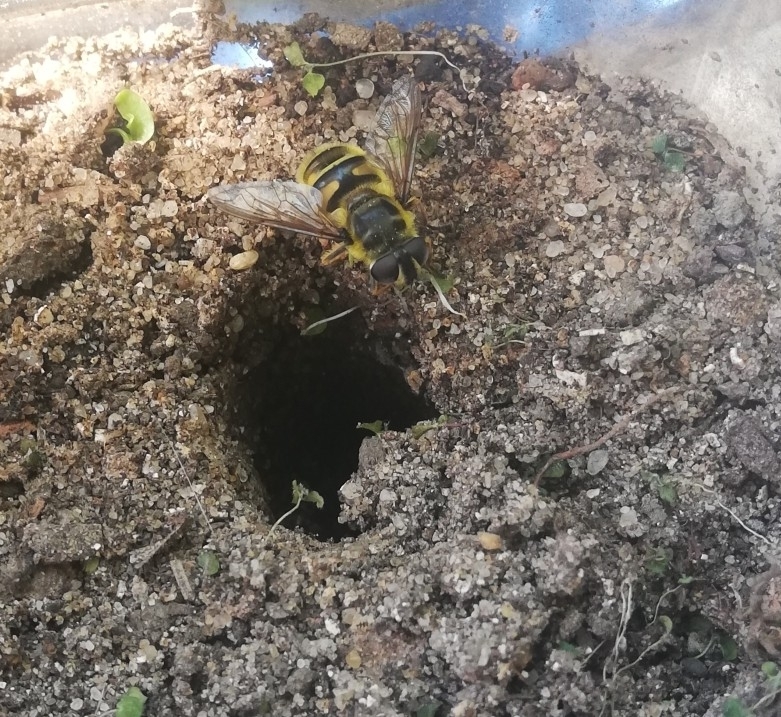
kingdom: Animalia
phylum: Arthropoda
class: Insecta
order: Diptera
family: Syrphidae
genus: Myathropa
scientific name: Myathropa florea
